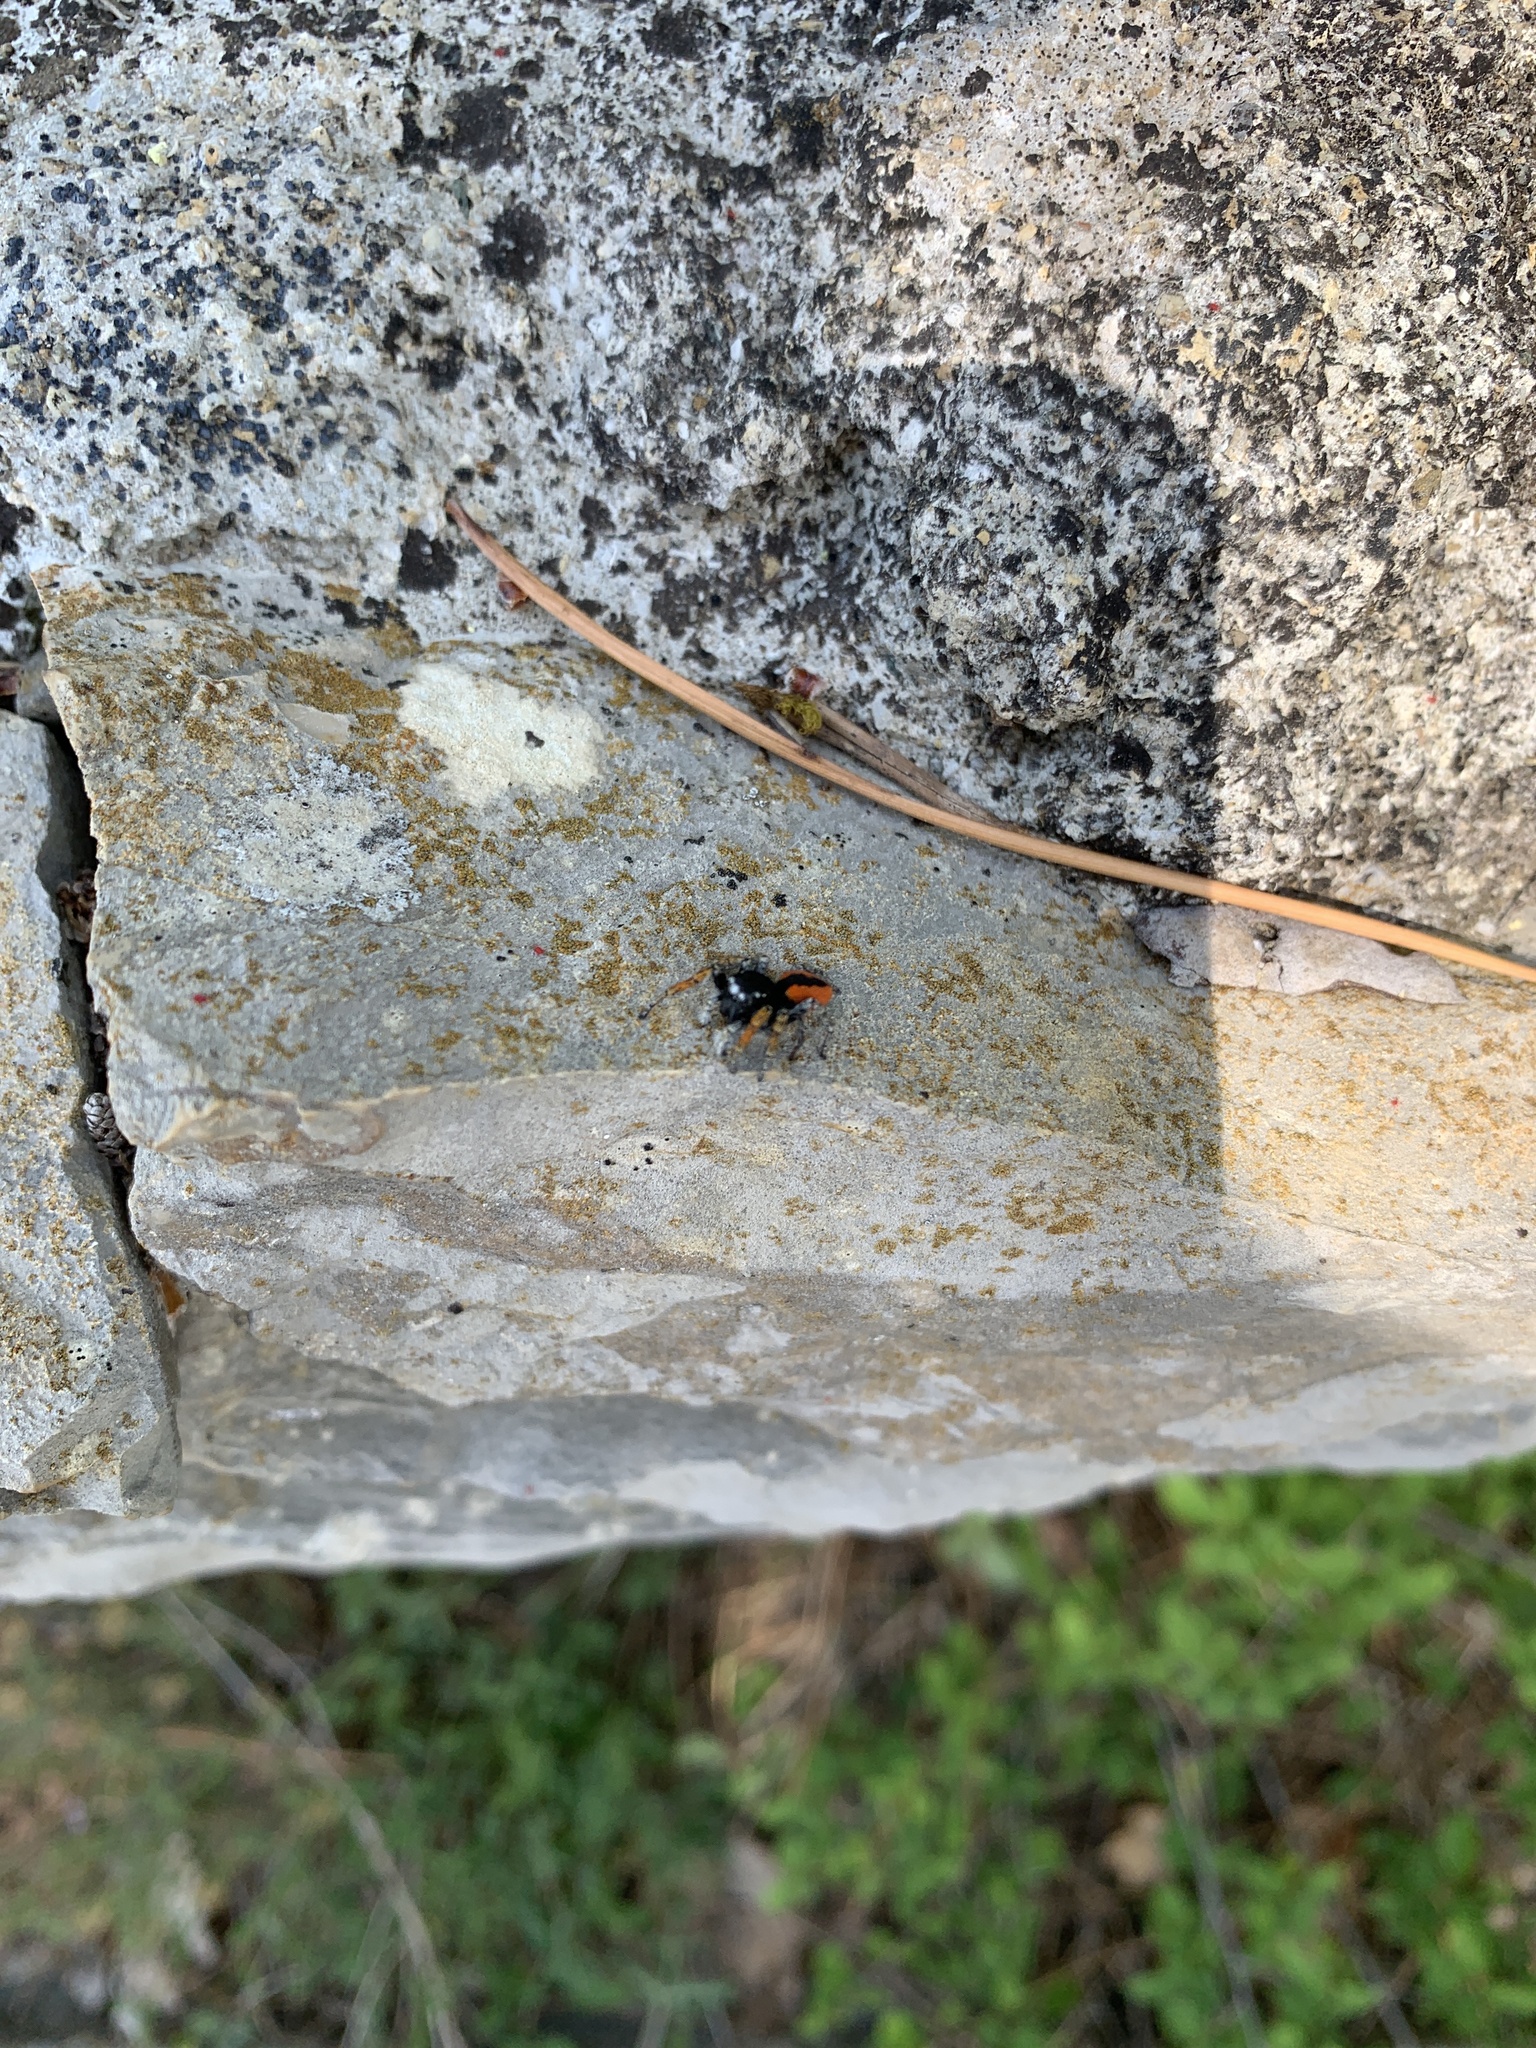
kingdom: Animalia
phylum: Arthropoda
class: Arachnida
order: Araneae
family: Salticidae
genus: Philaeus
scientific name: Philaeus chrysops
